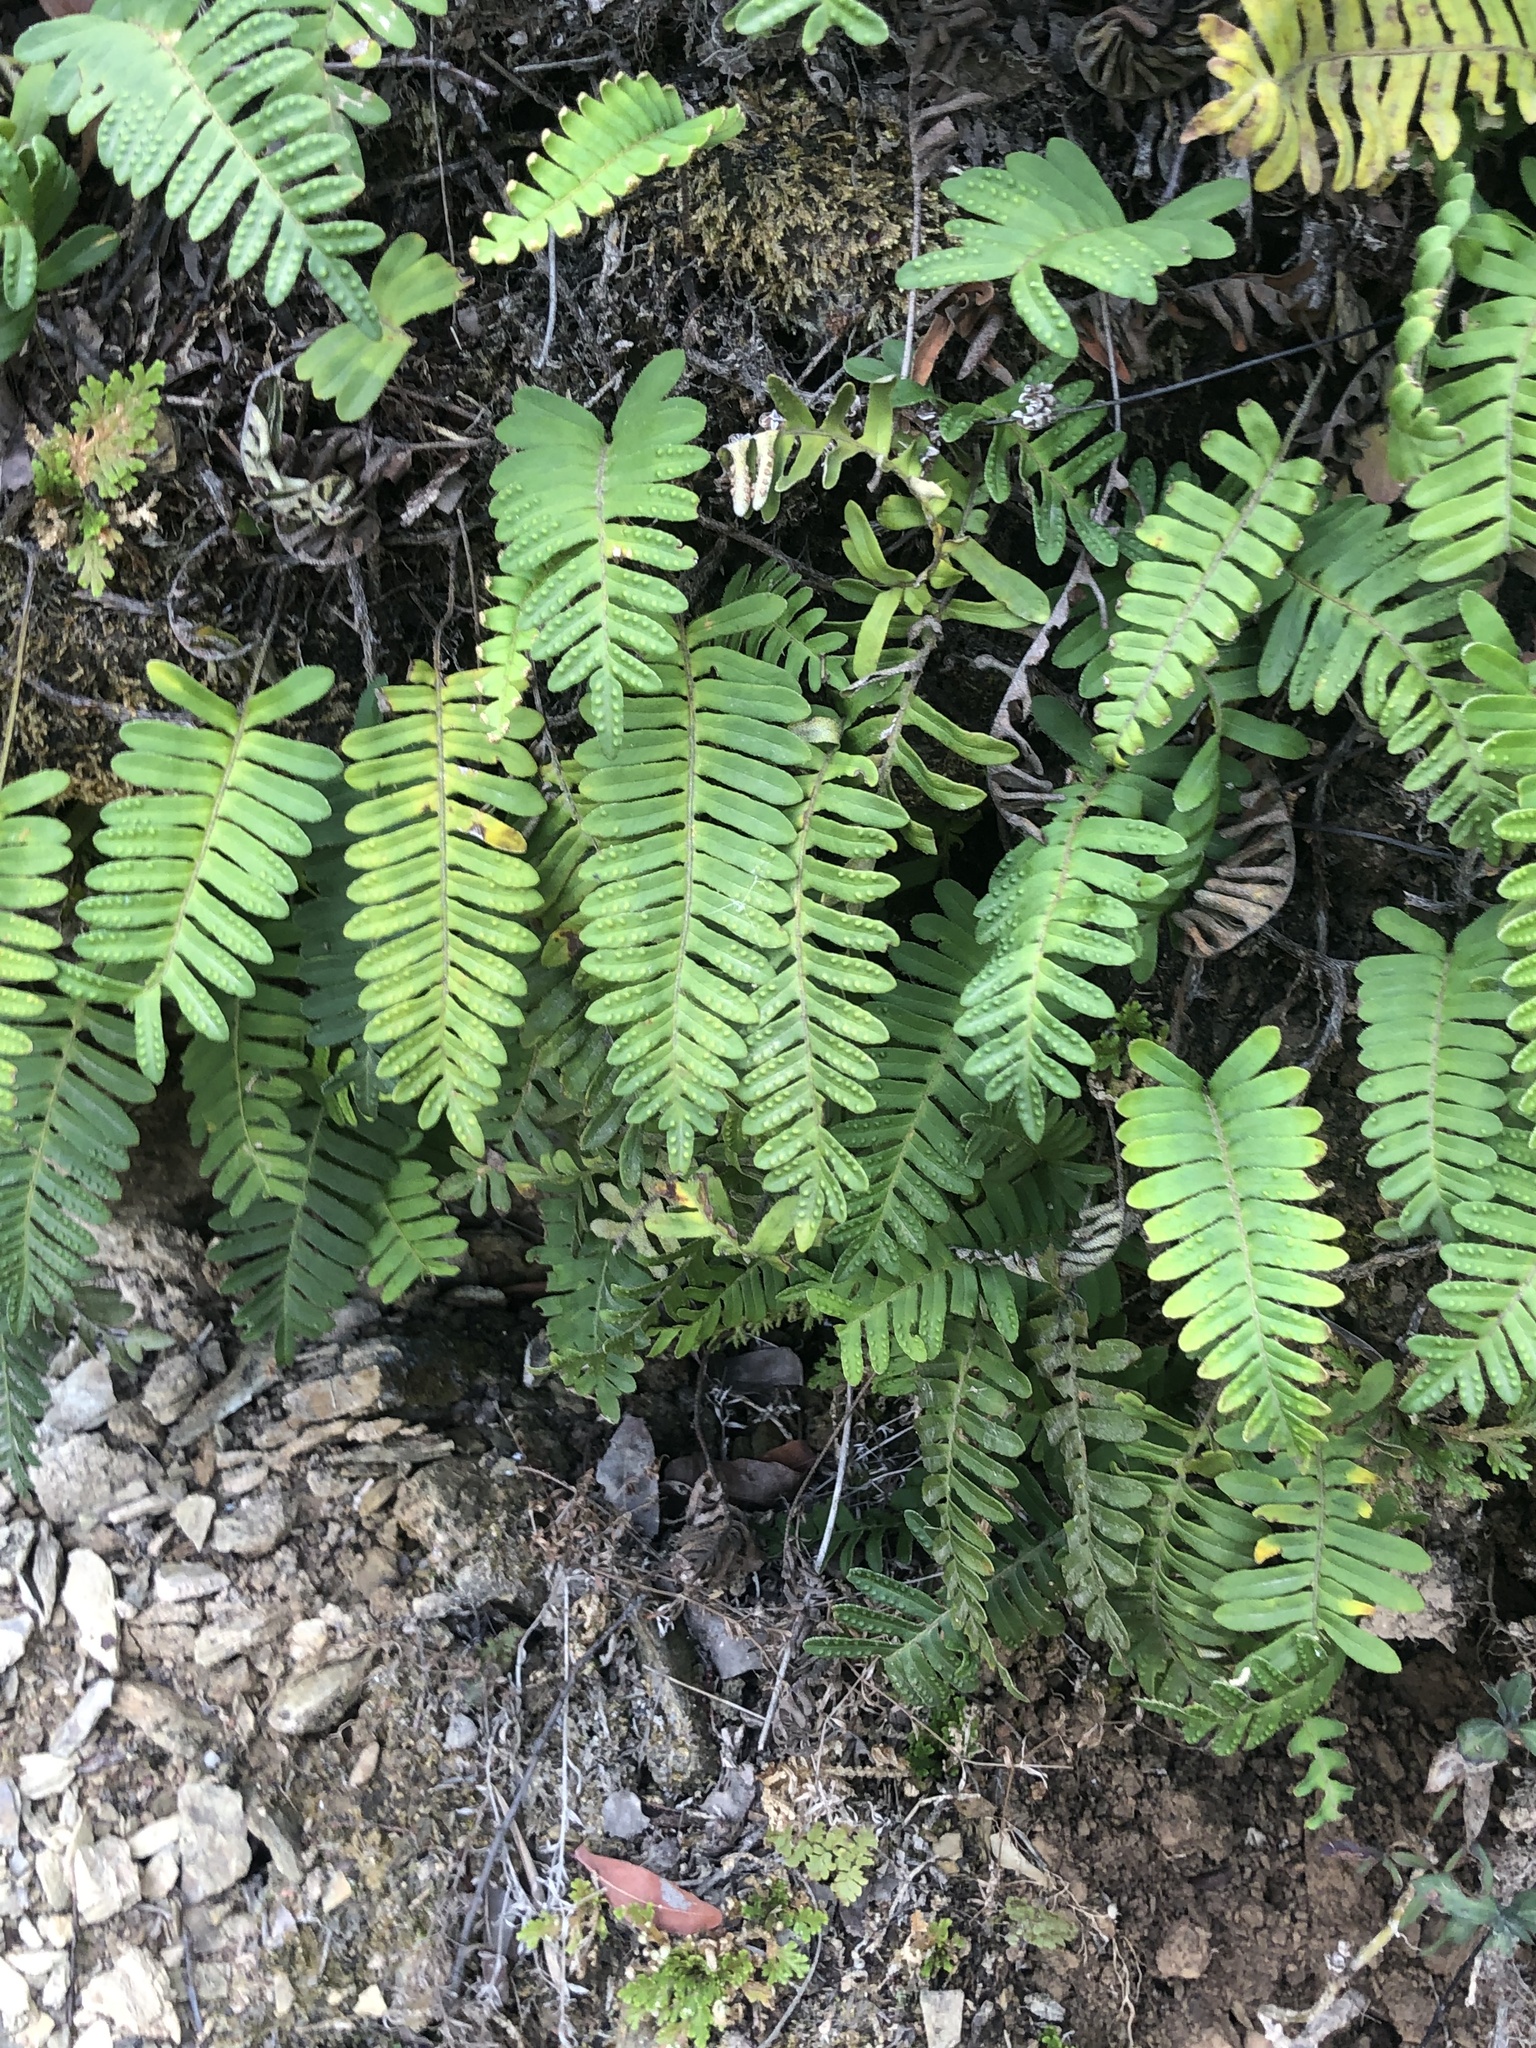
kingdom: Plantae
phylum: Tracheophyta
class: Polypodiopsida
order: Polypodiales
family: Polypodiaceae
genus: Pleopeltis
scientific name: Pleopeltis michauxiana
